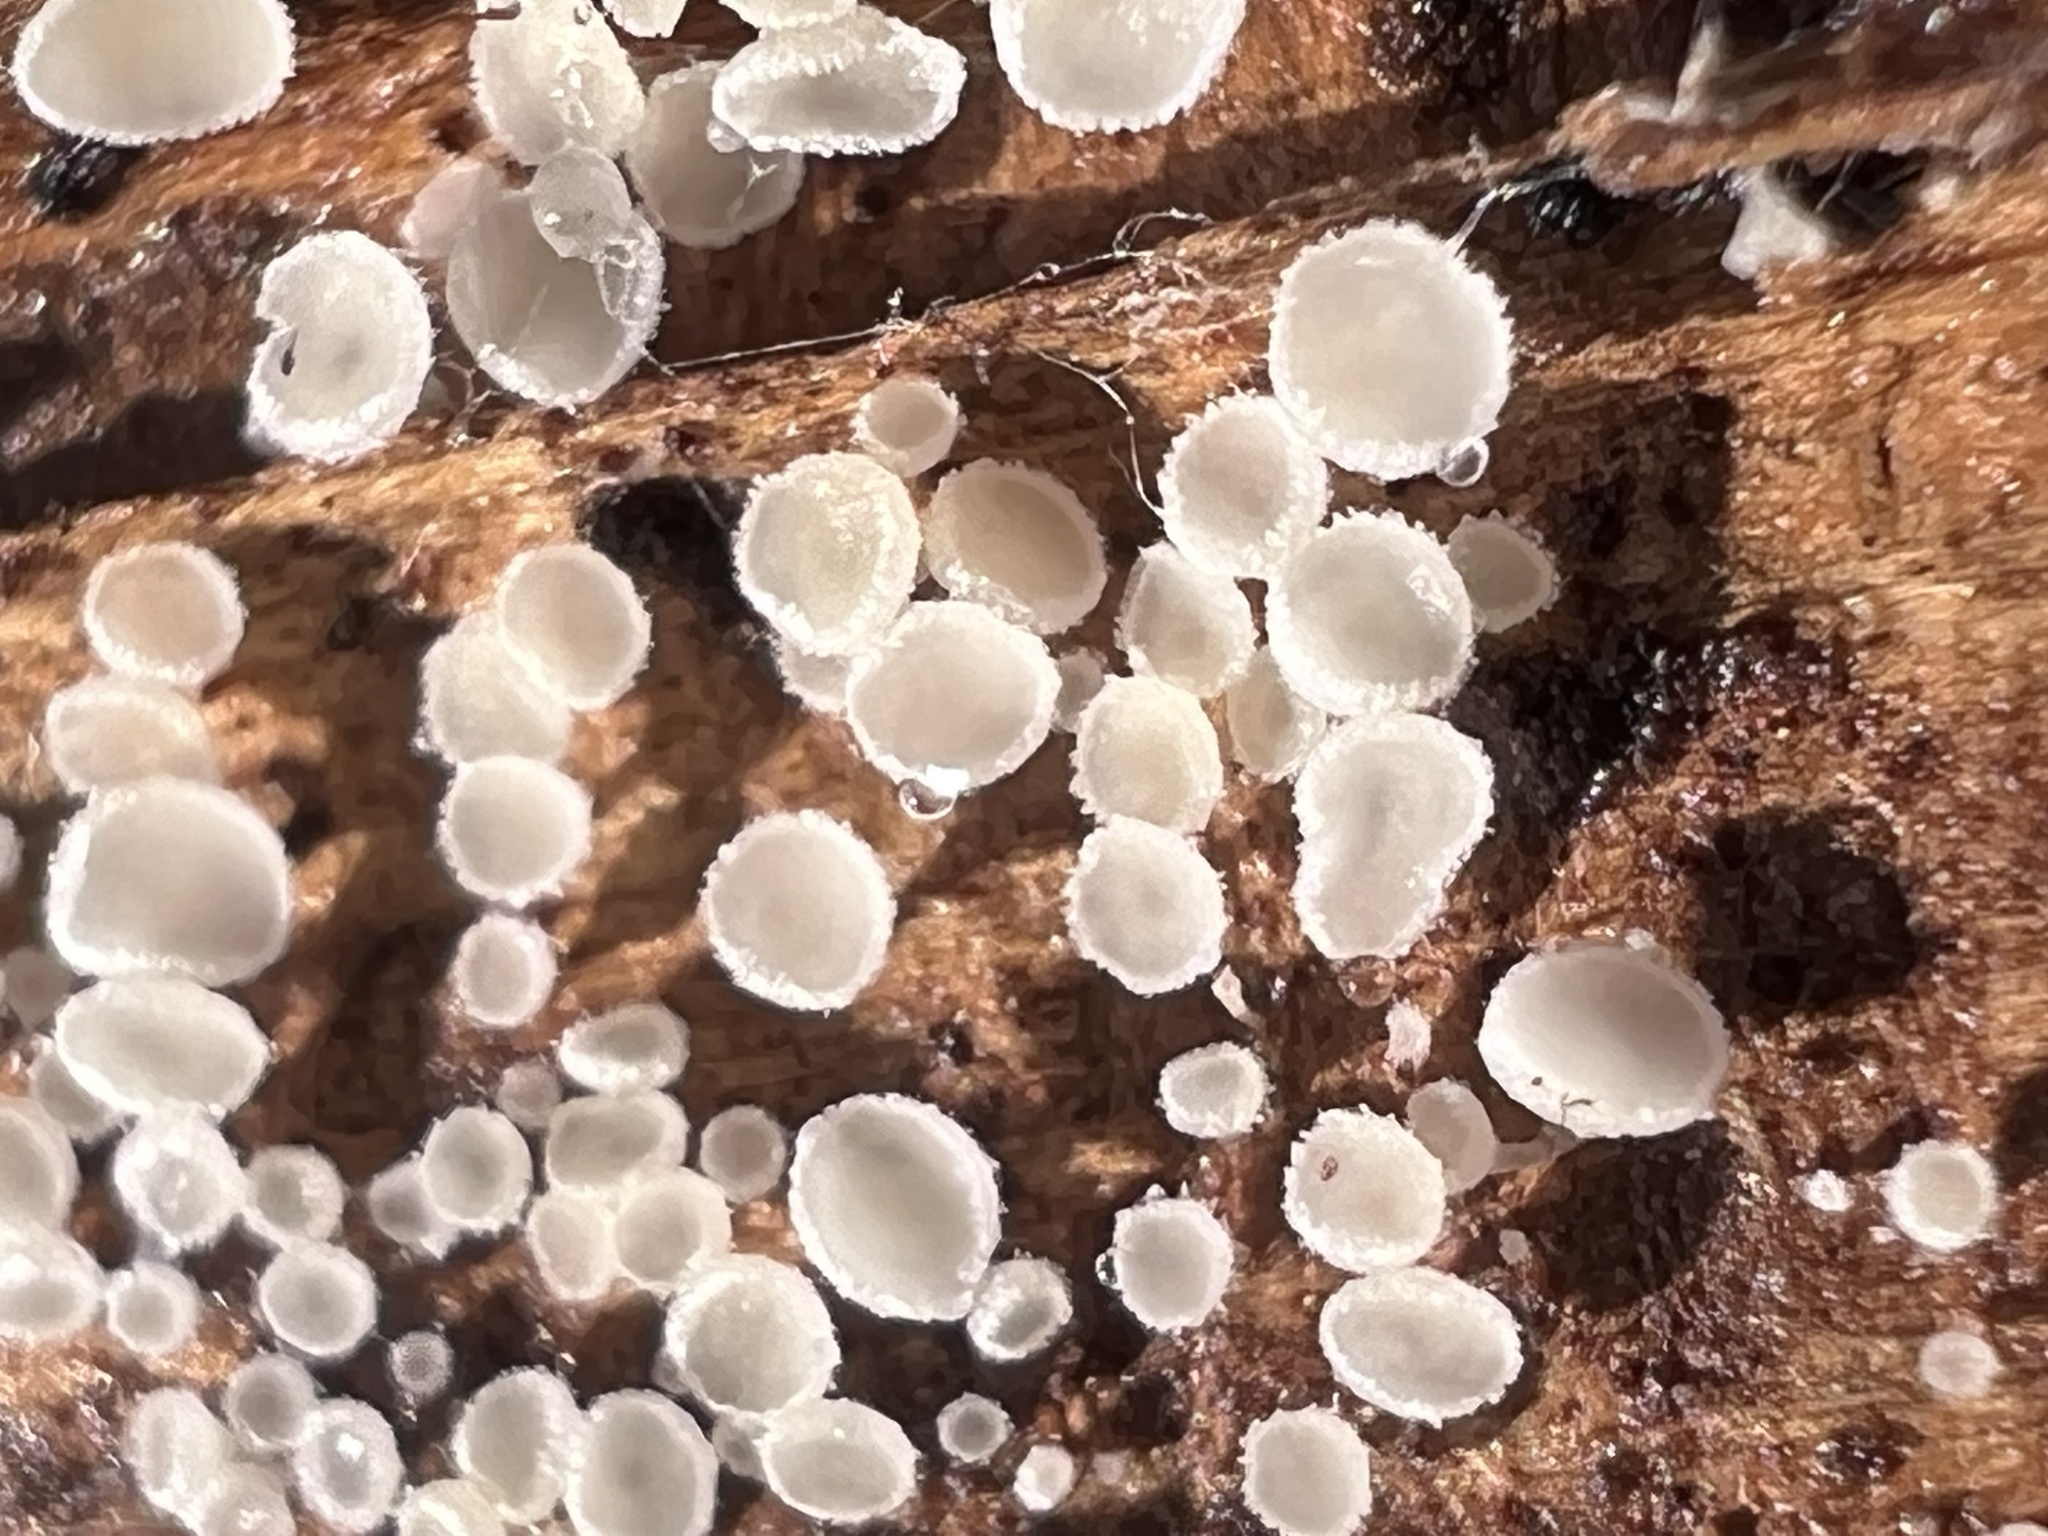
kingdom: Fungi
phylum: Ascomycota
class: Leotiomycetes
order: Helotiales
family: Lachnaceae
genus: Lachnum
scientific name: Lachnum virgineum
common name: Snowy disco
